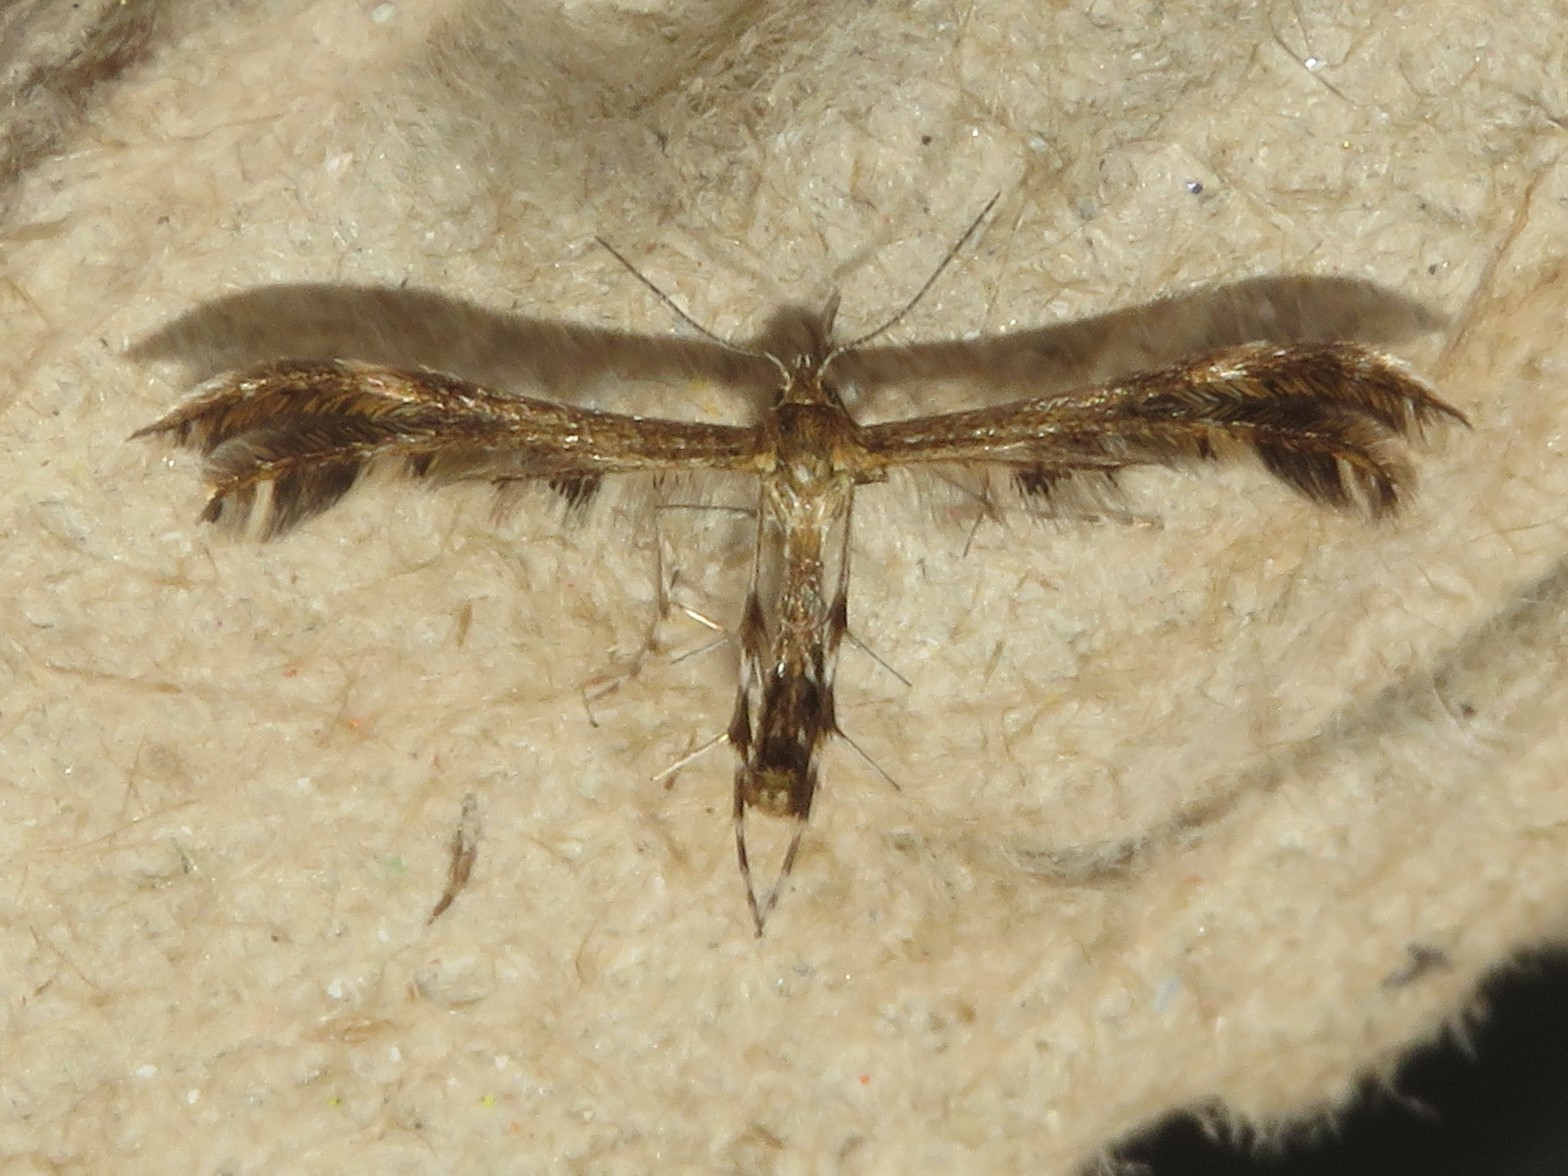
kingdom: Animalia
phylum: Arthropoda
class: Insecta
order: Lepidoptera
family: Pterophoridae
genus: Dejongia
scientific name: Dejongia lobidactylus
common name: Lobed plume moth
